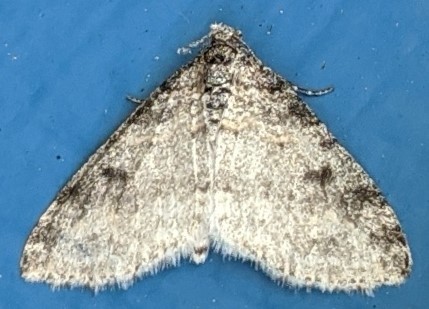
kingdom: Animalia
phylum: Arthropoda
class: Insecta
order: Lepidoptera
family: Geometridae
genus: Lobophora
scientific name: Lobophora nivigerata
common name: Powdered bigwing
